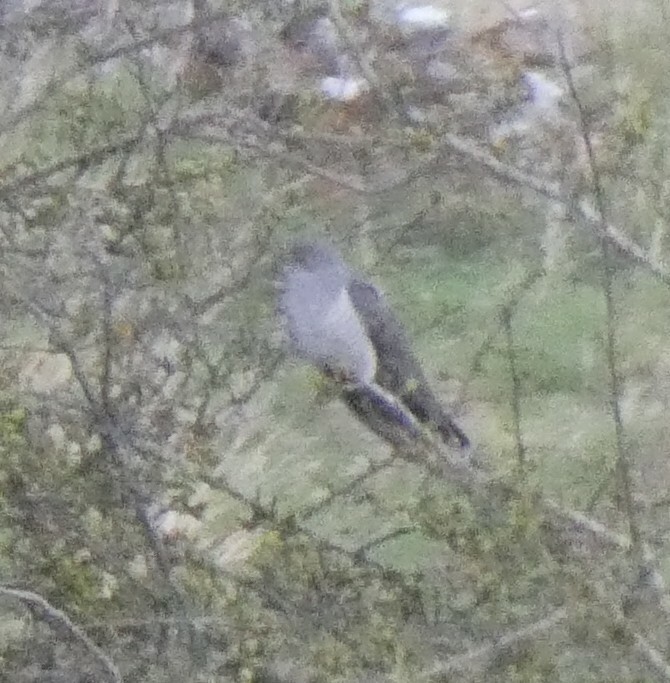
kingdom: Animalia
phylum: Chordata
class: Aves
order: Cuculiformes
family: Cuculidae
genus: Cuculus
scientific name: Cuculus canorus
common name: Common cuckoo
